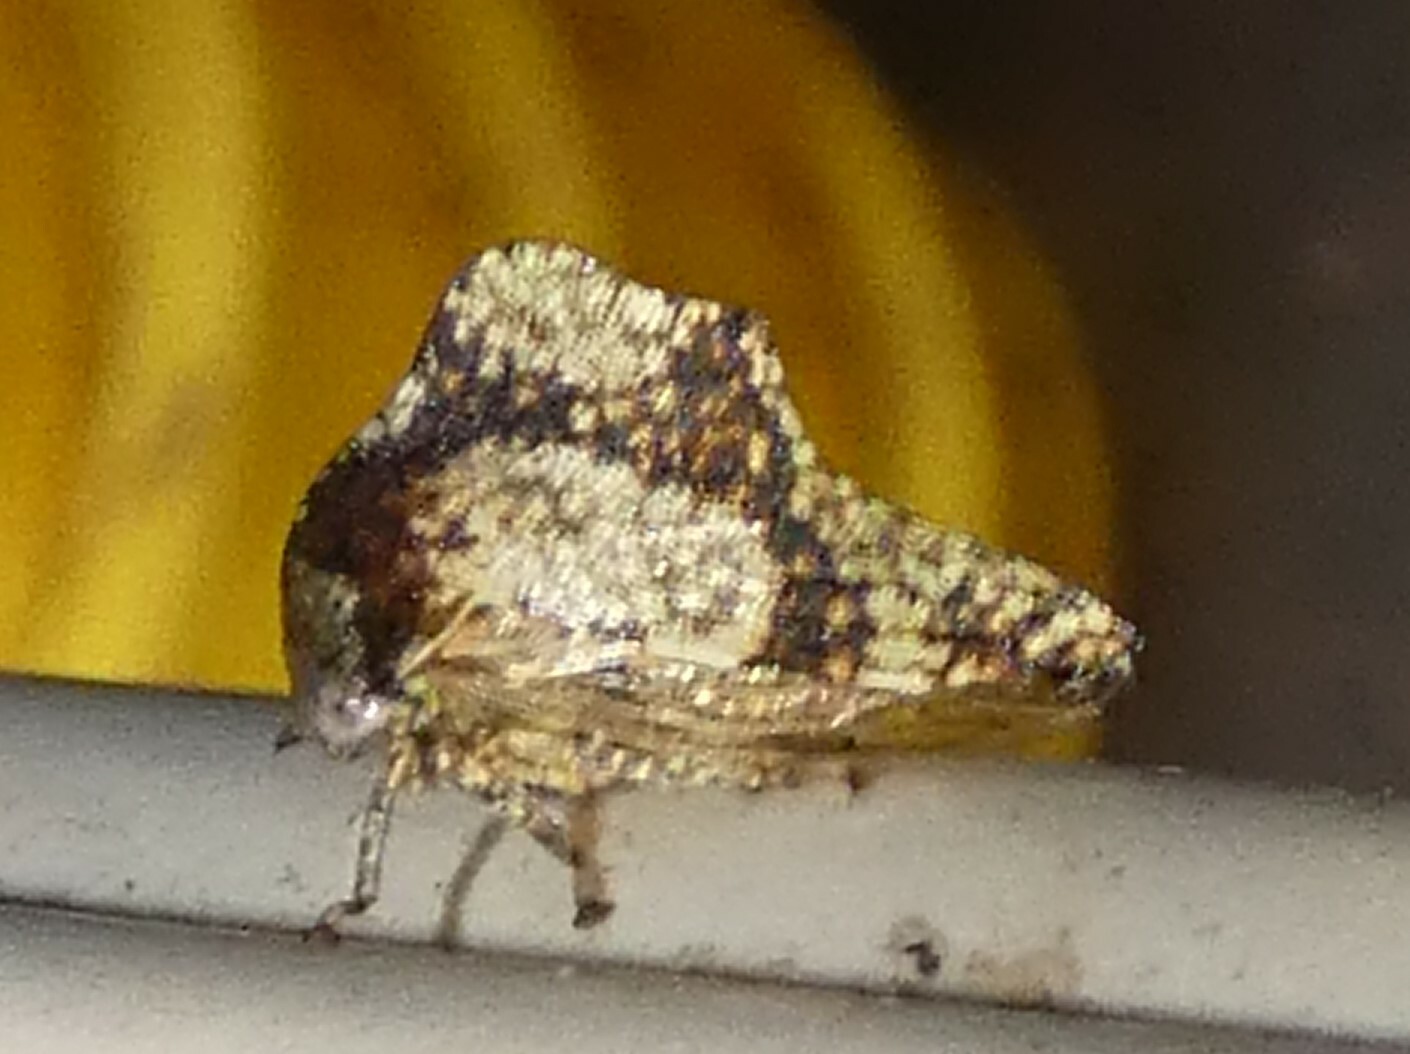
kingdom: Animalia
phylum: Arthropoda
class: Insecta
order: Hemiptera
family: Membracidae
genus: Heliria
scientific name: Heliria cornutula
